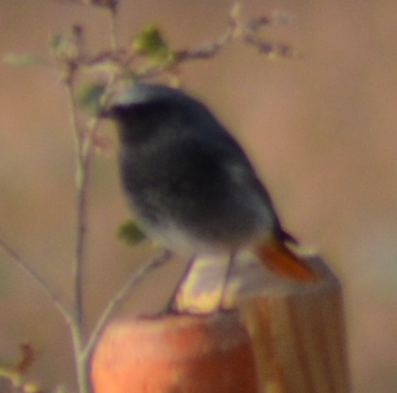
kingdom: Animalia
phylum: Chordata
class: Aves
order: Passeriformes
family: Muscicapidae
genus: Phoenicurus
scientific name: Phoenicurus ochruros
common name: Black redstart
